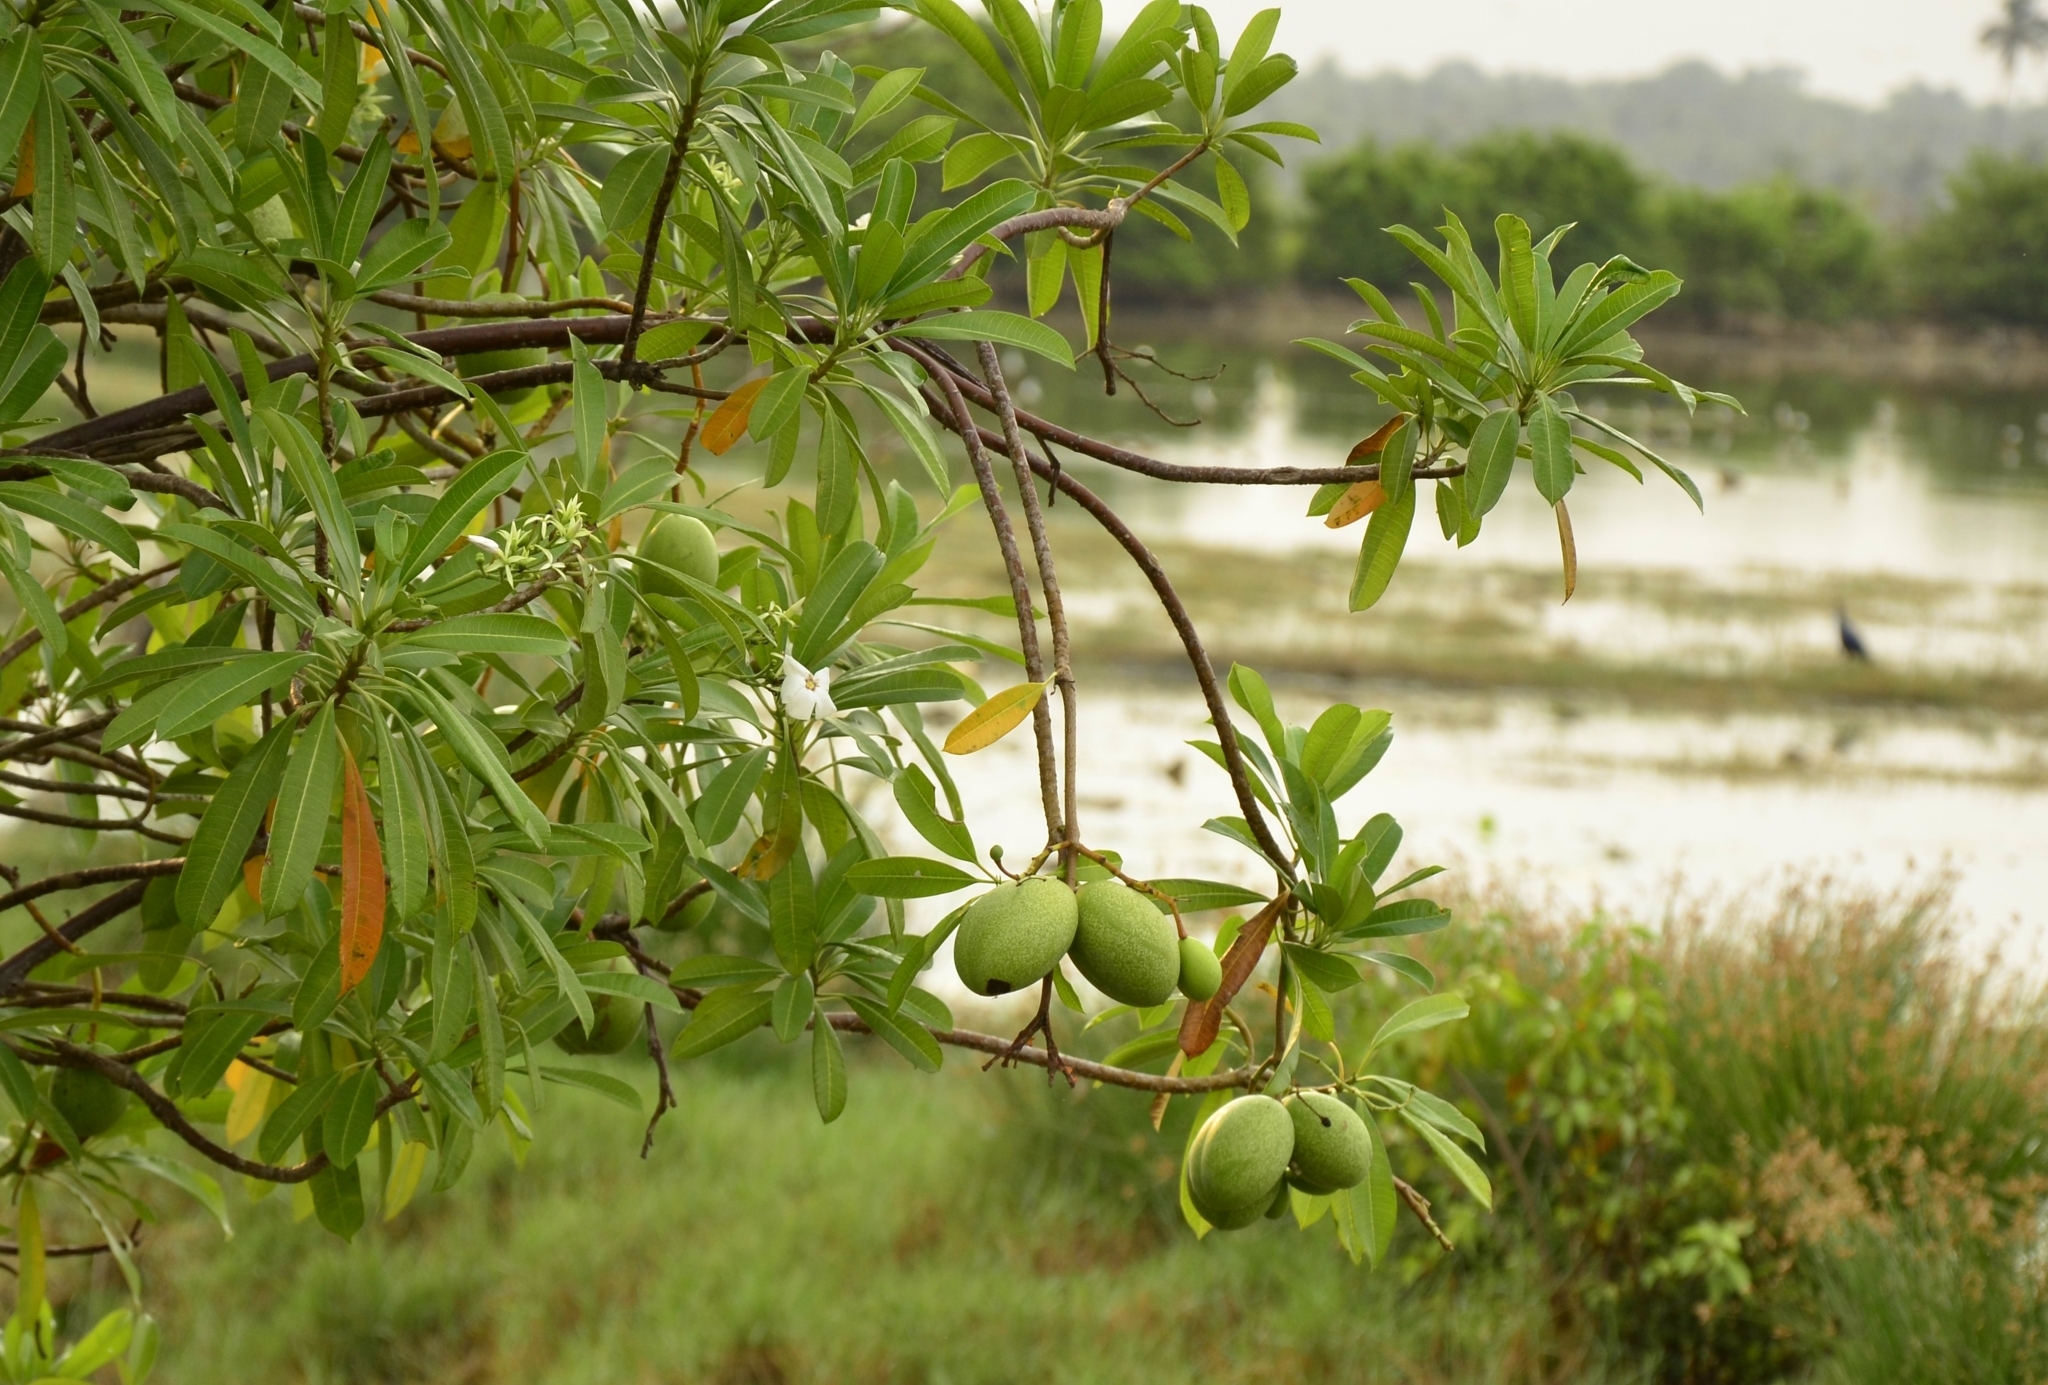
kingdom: Plantae
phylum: Tracheophyta
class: Magnoliopsida
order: Gentianales
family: Apocynaceae
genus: Cerbera
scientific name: Cerbera odollam
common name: Pong-pong
